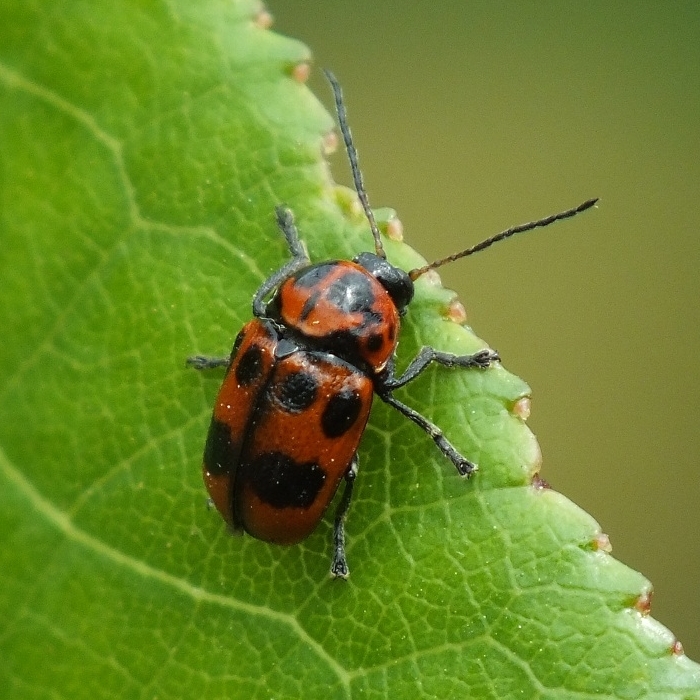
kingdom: Animalia
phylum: Arthropoda
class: Insecta
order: Coleoptera
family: Chrysomelidae
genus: Cryptocephalus
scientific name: Cryptocephalus laevicollis
